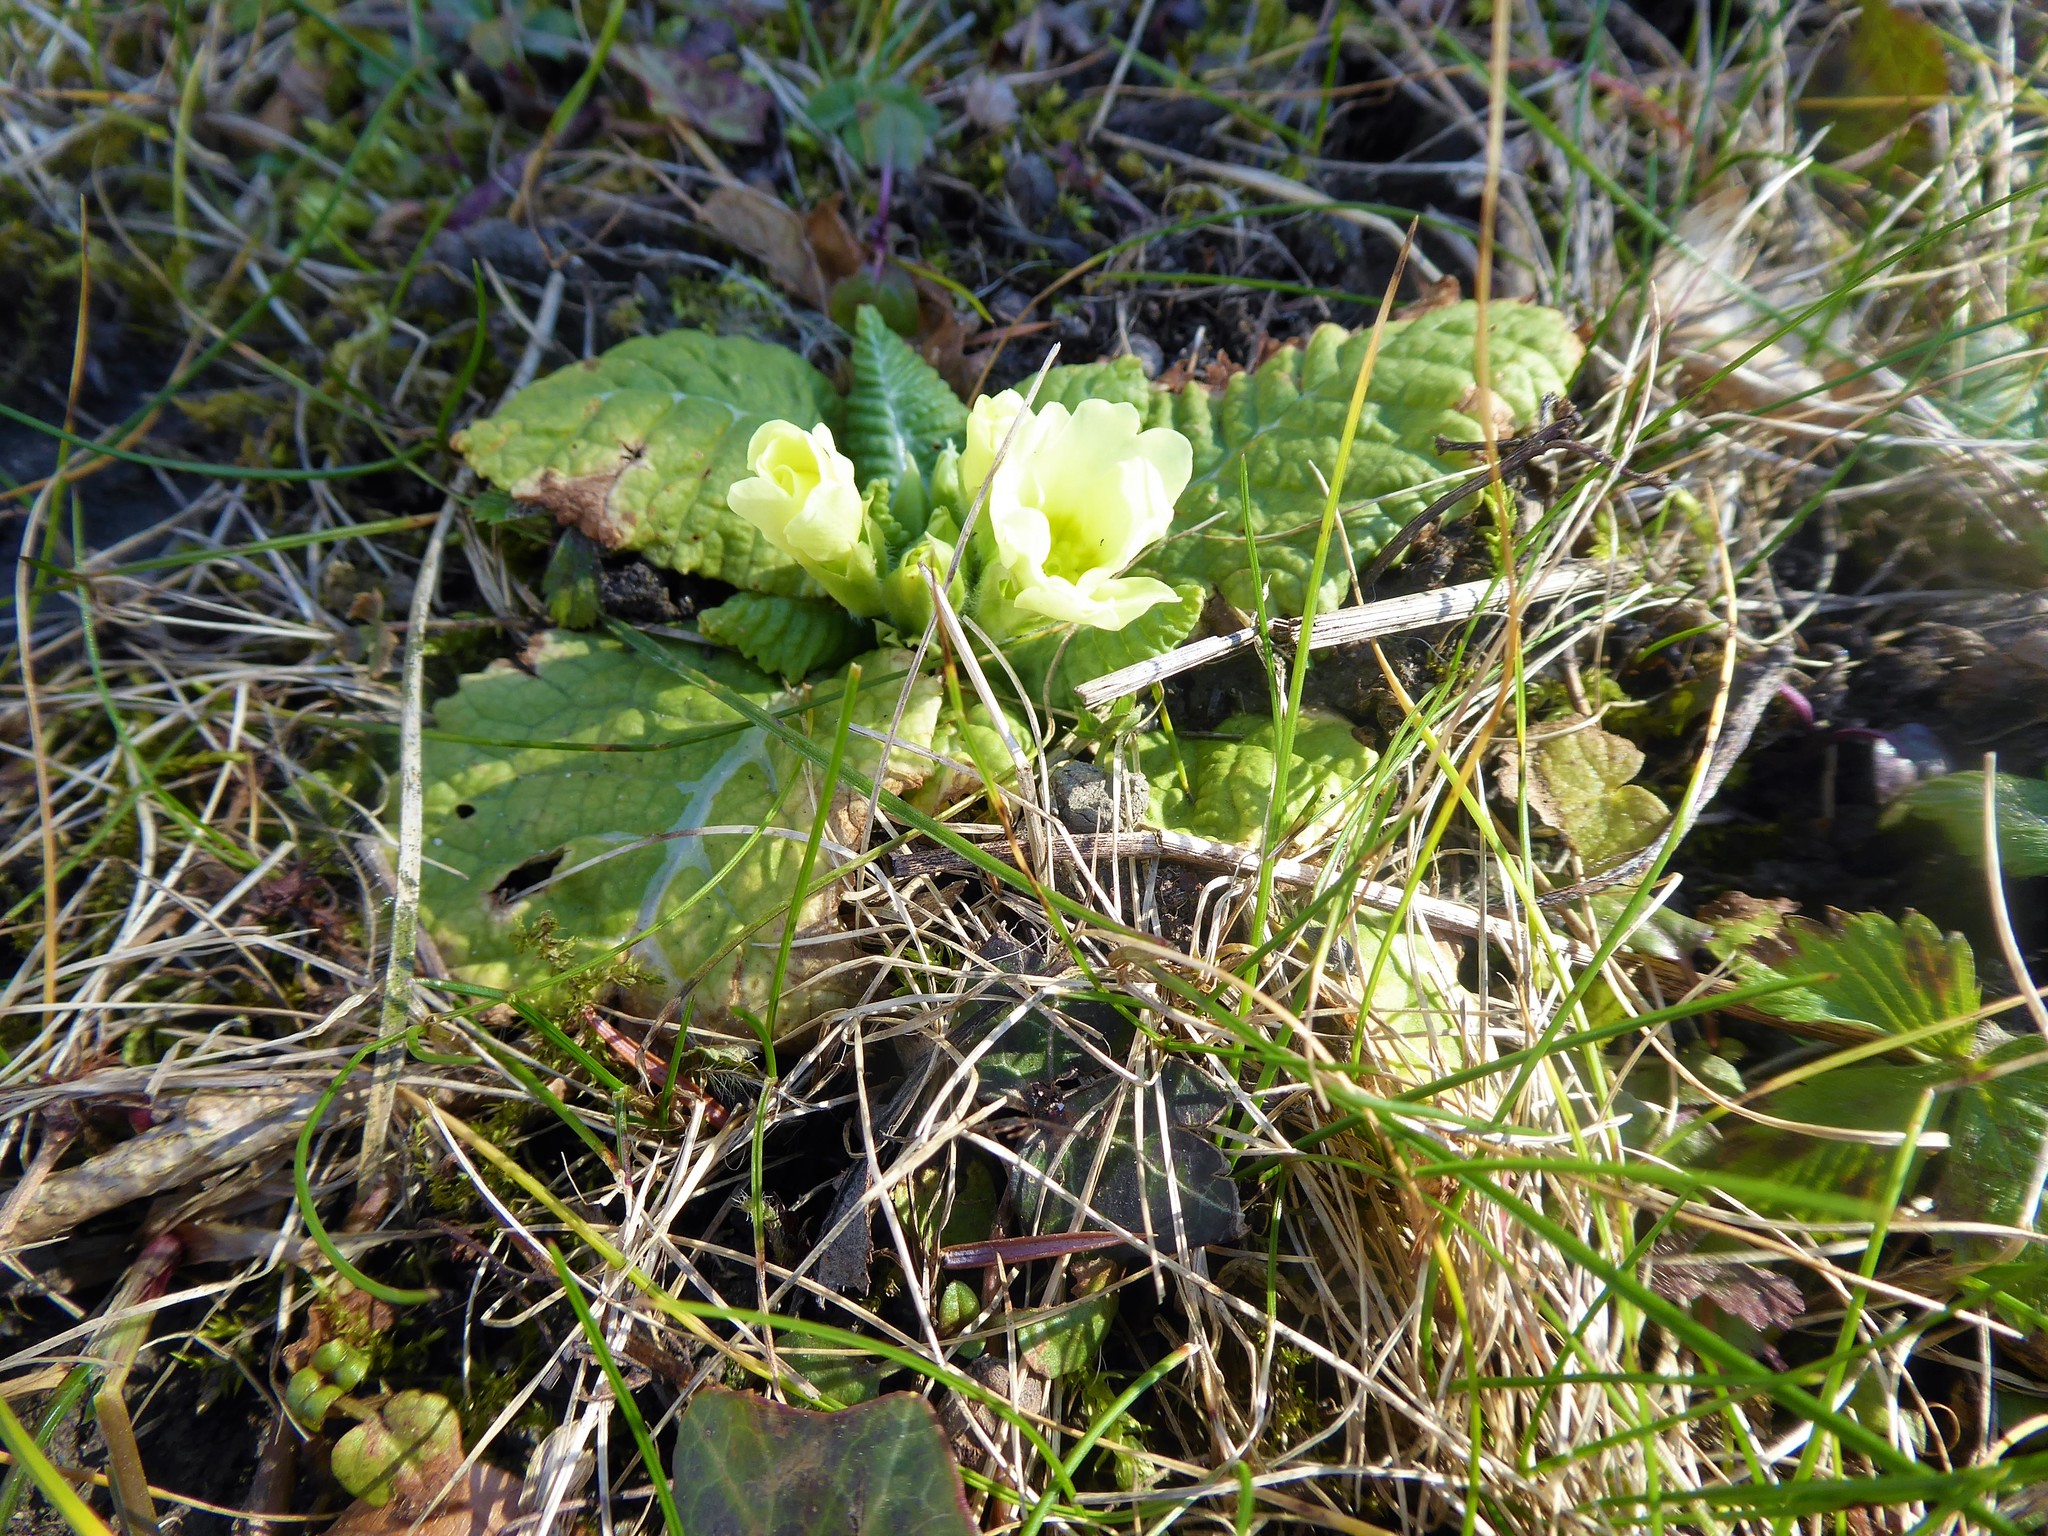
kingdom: Plantae
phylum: Tracheophyta
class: Magnoliopsida
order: Ericales
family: Primulaceae
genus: Primula
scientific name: Primula vulgaris
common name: Primrose
